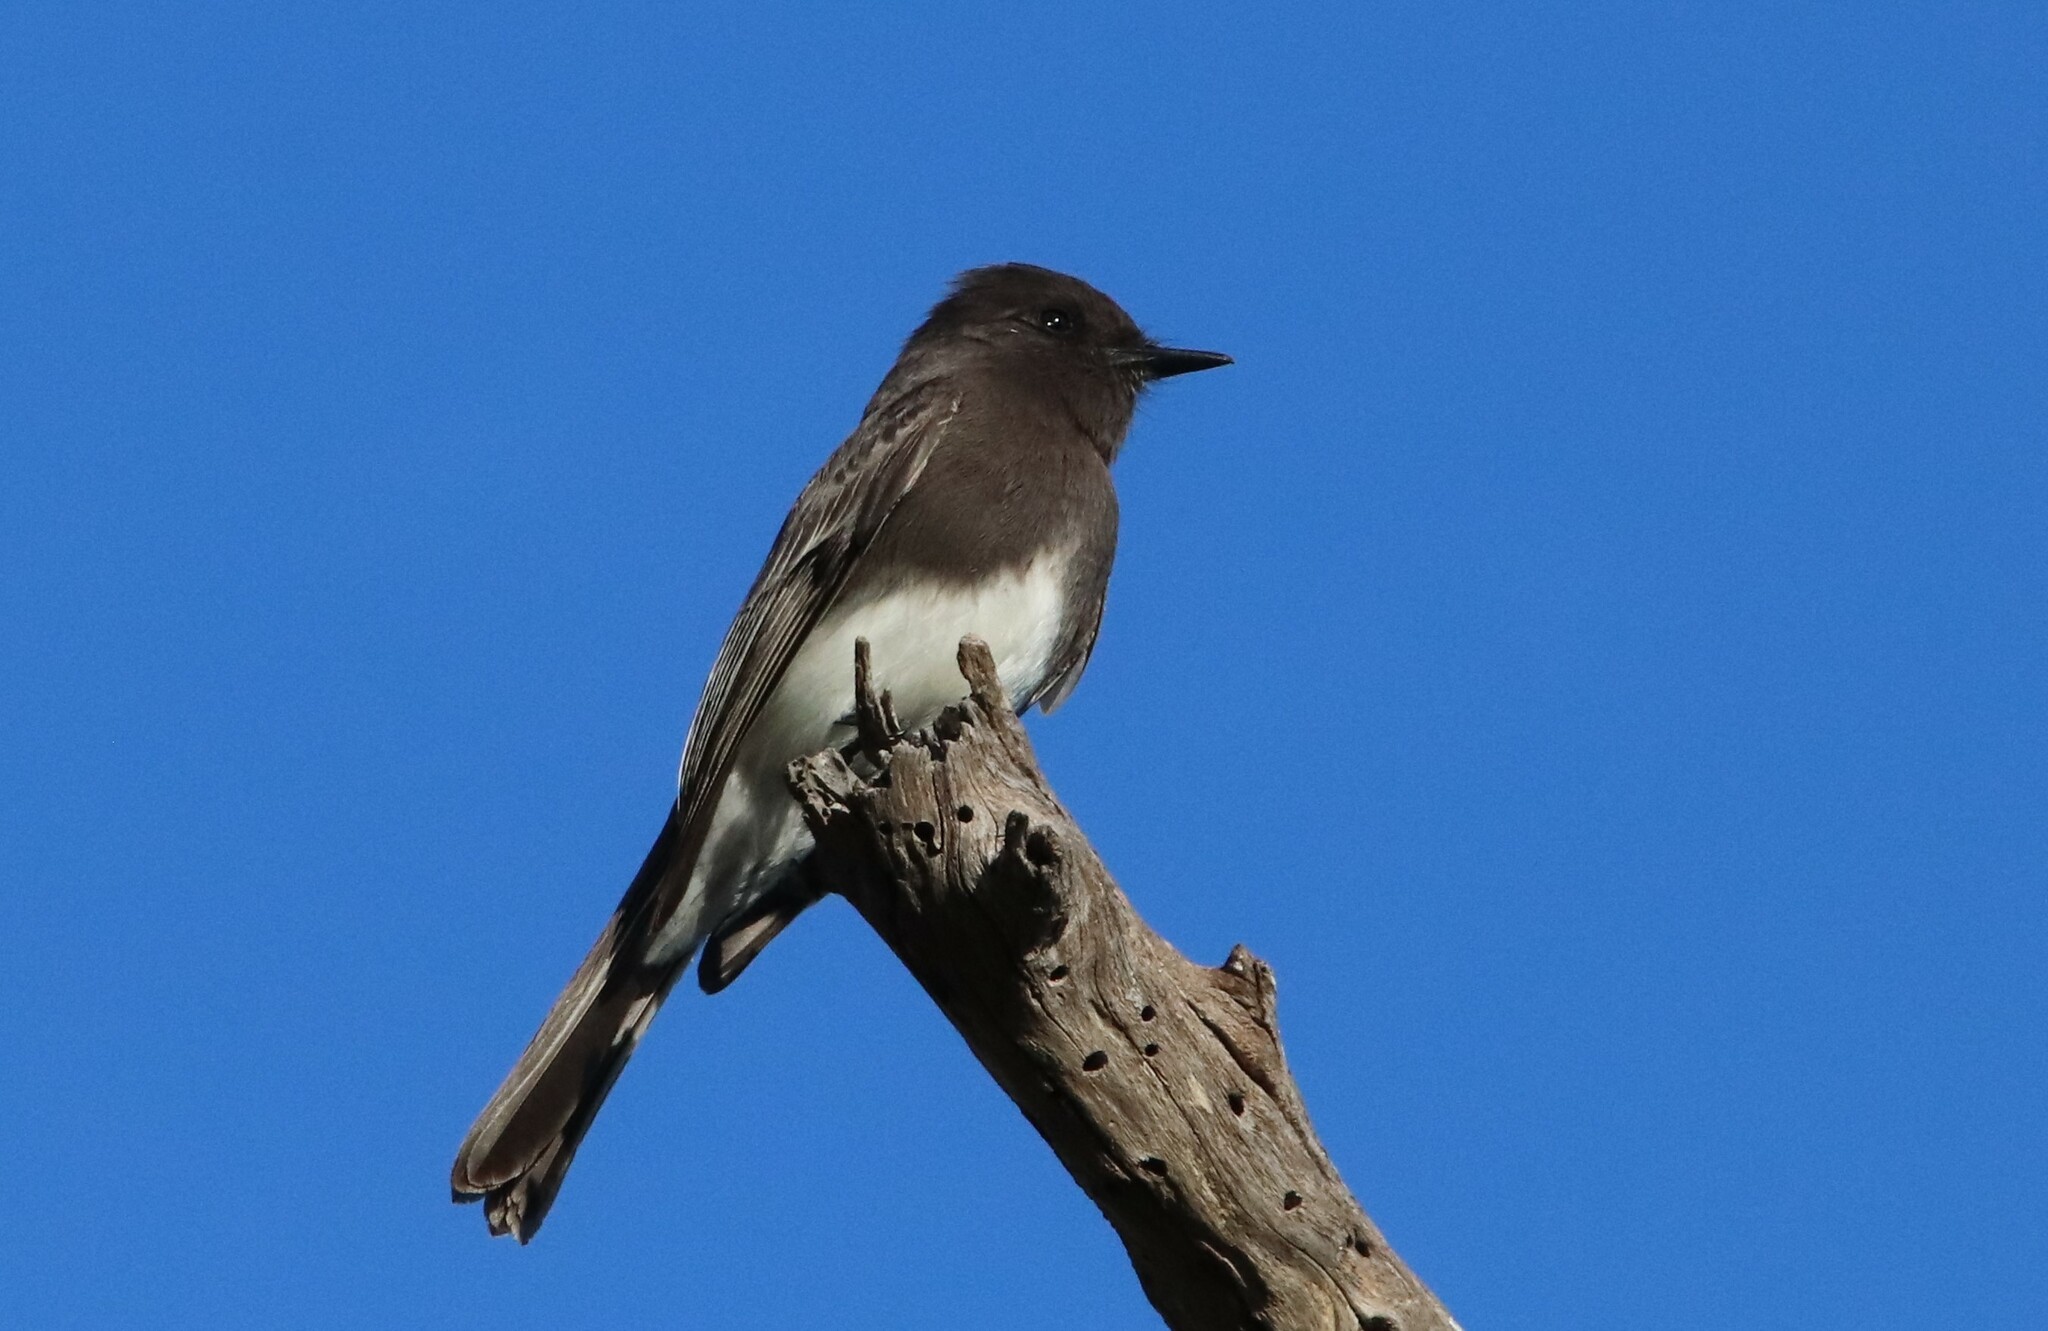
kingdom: Animalia
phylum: Chordata
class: Aves
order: Passeriformes
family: Tyrannidae
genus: Sayornis
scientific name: Sayornis nigricans
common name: Black phoebe
